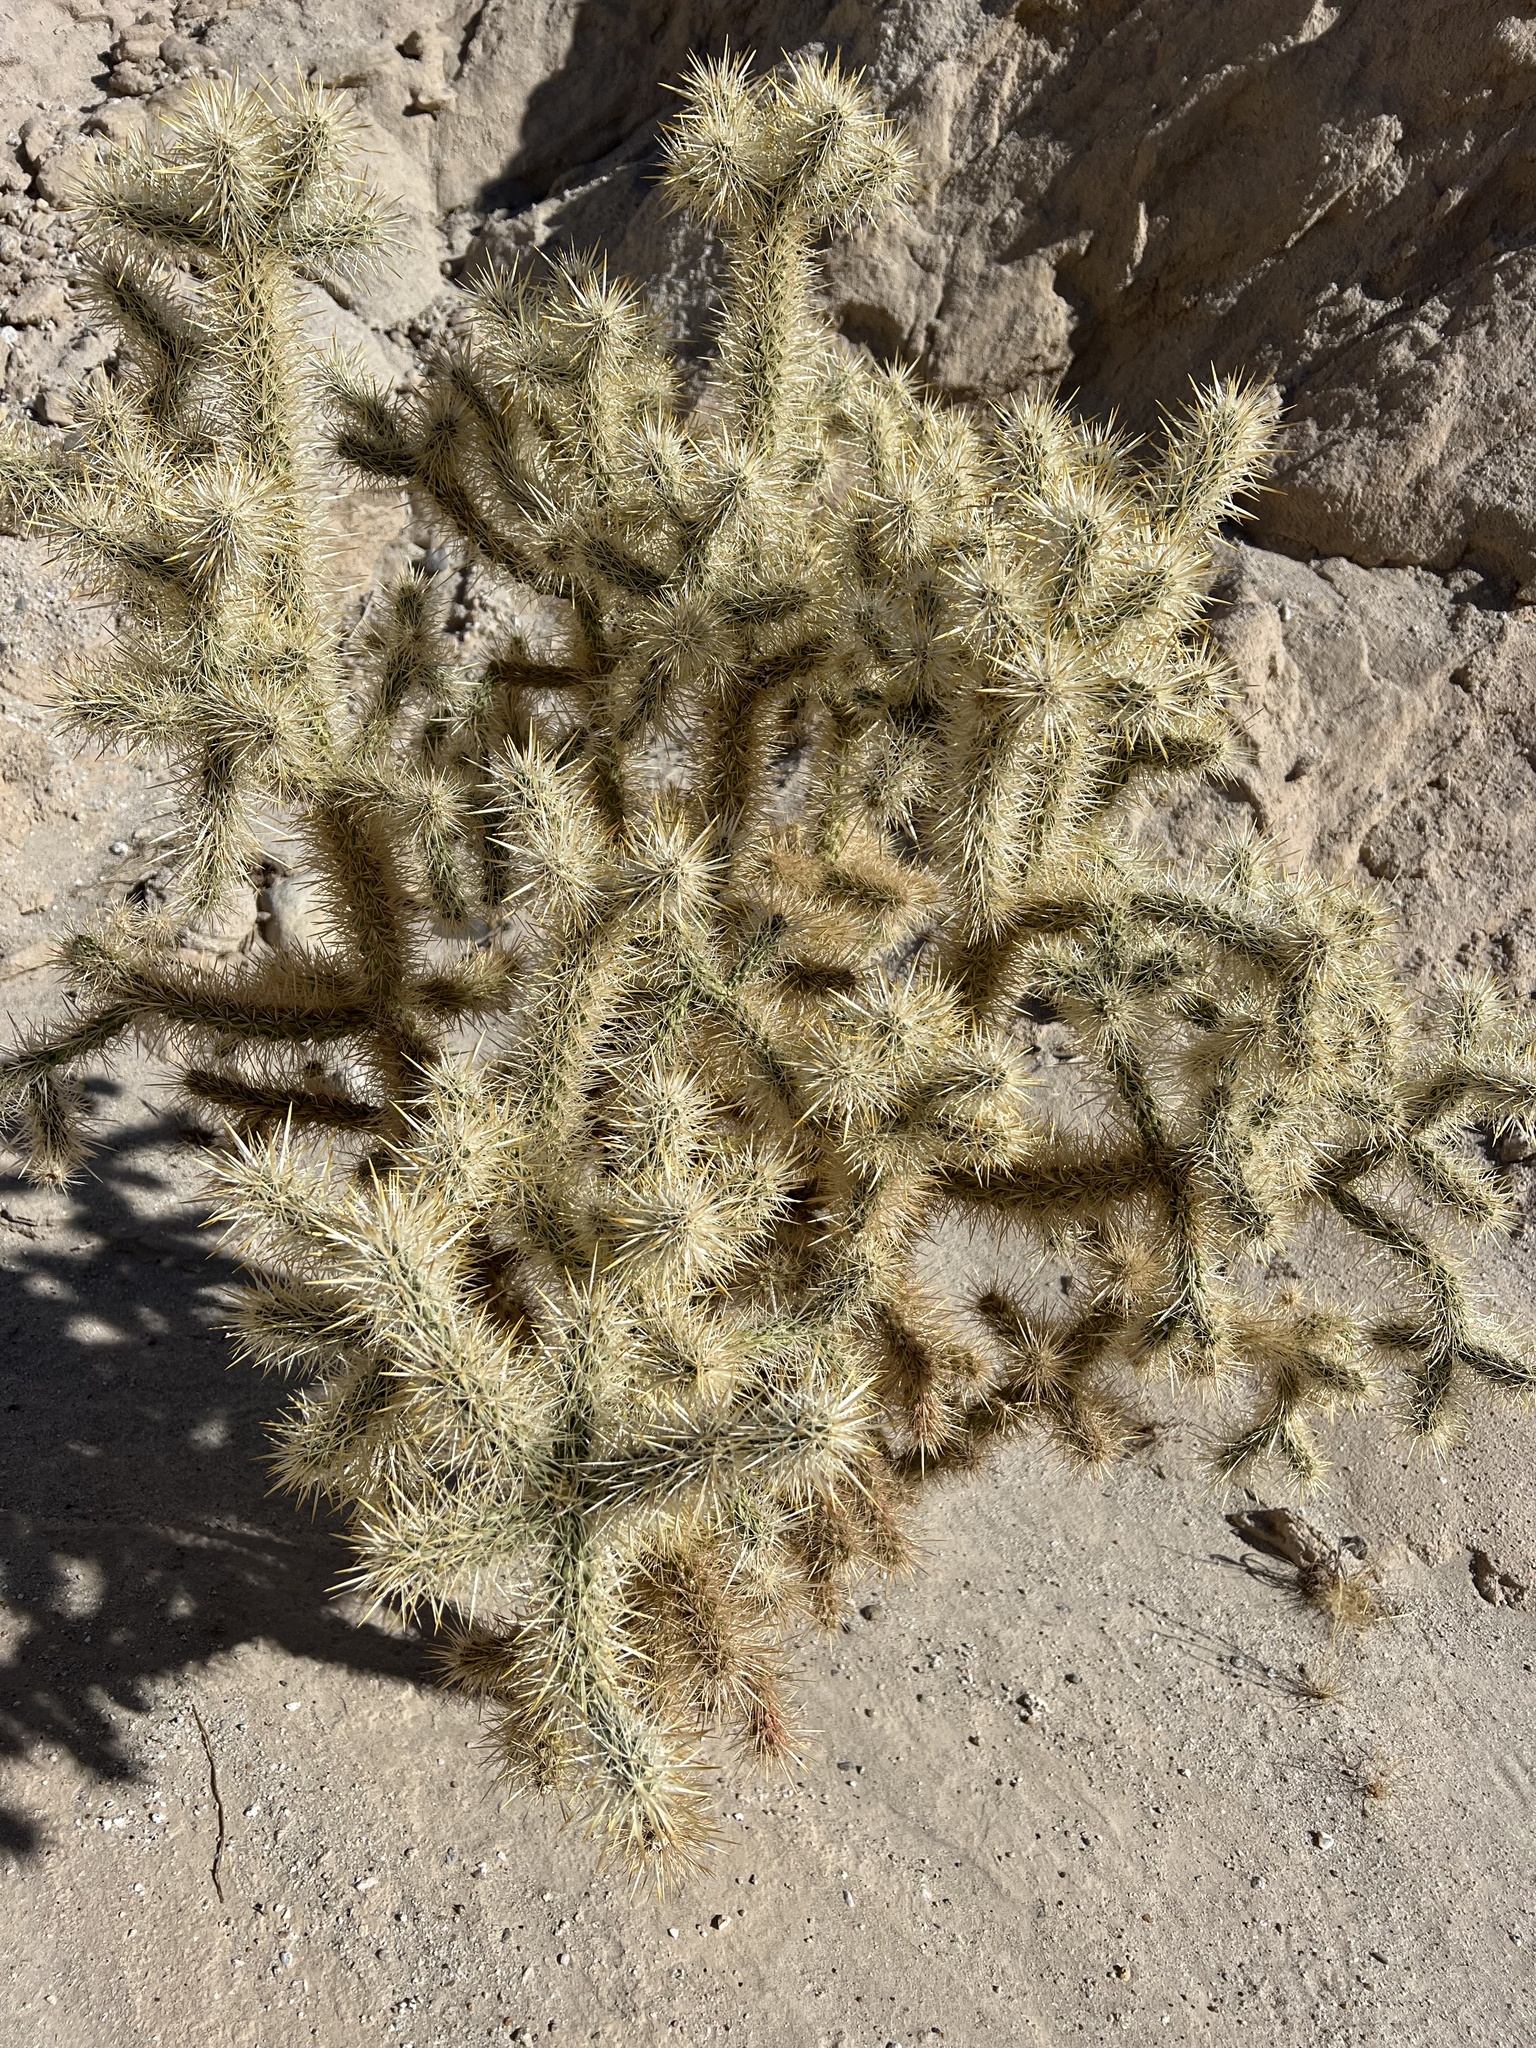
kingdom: Plantae
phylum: Tracheophyta
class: Magnoliopsida
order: Caryophyllales
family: Cactaceae
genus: Cylindropuntia
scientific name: Cylindropuntia echinocarpa
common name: Ground cholla
